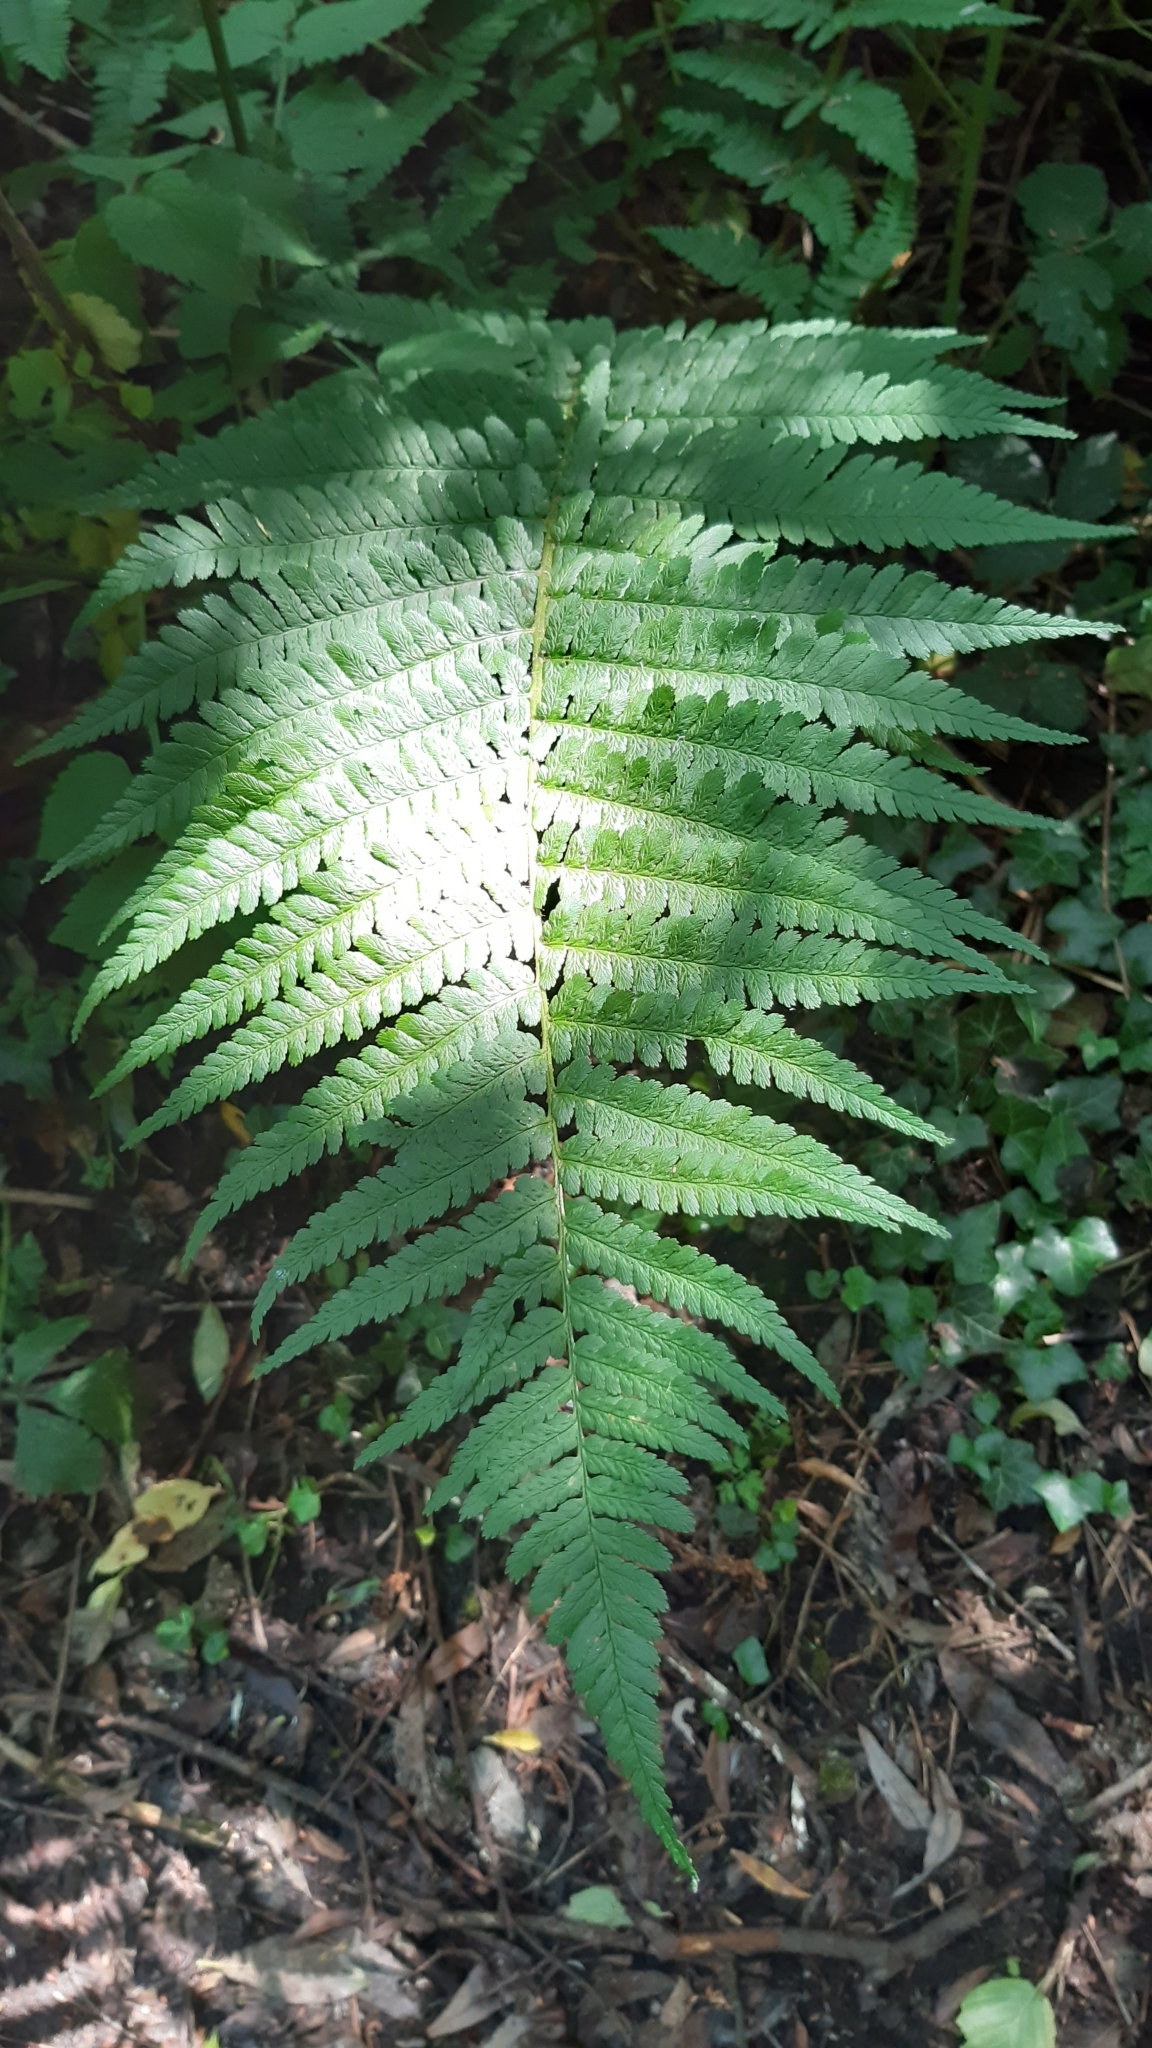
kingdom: Plantae
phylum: Tracheophyta
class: Polypodiopsida
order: Polypodiales
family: Dryopteridaceae
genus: Dryopteris
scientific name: Dryopteris filix-mas
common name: Male fern
